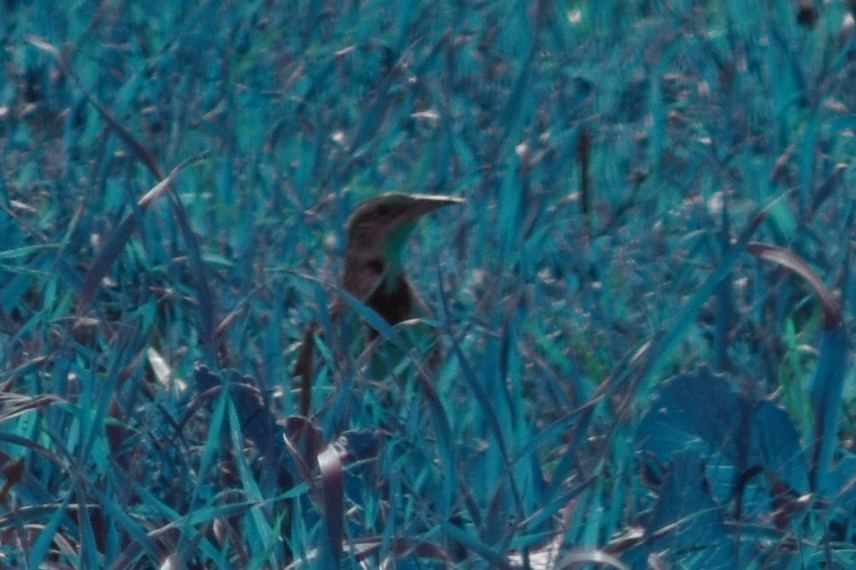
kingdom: Animalia
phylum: Chordata
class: Aves
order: Passeriformes
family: Icteridae
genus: Sturnella
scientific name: Sturnella neglecta
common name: Western meadowlark
